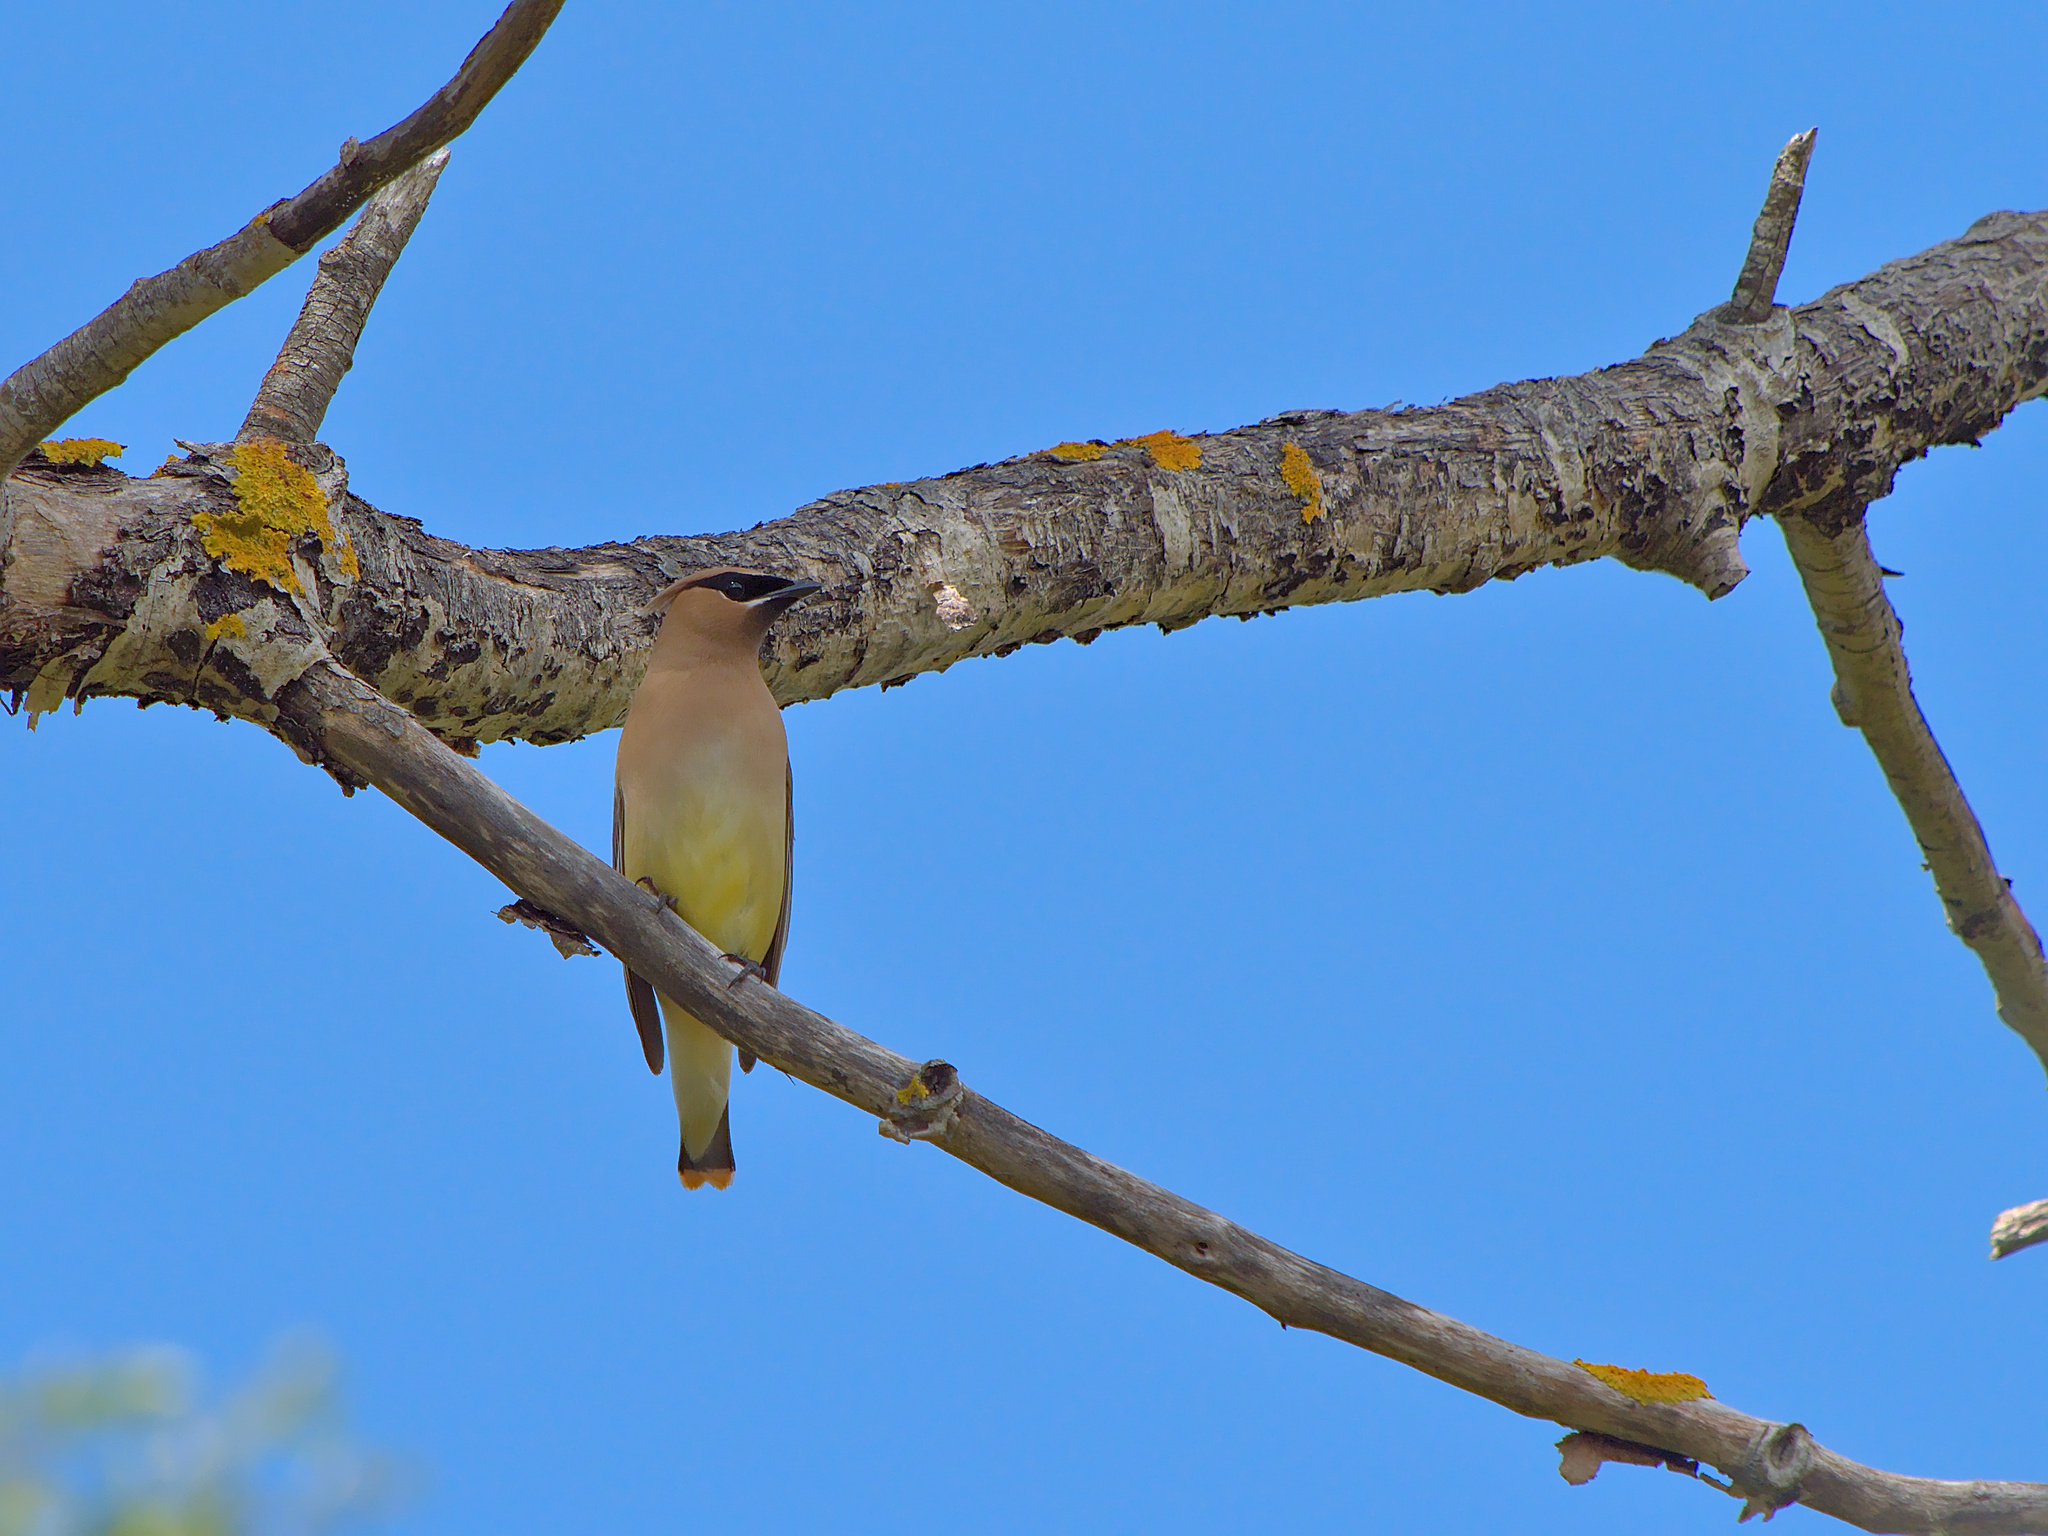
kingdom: Animalia
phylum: Chordata
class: Aves
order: Passeriformes
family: Bombycillidae
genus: Bombycilla
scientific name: Bombycilla cedrorum
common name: Cedar waxwing
